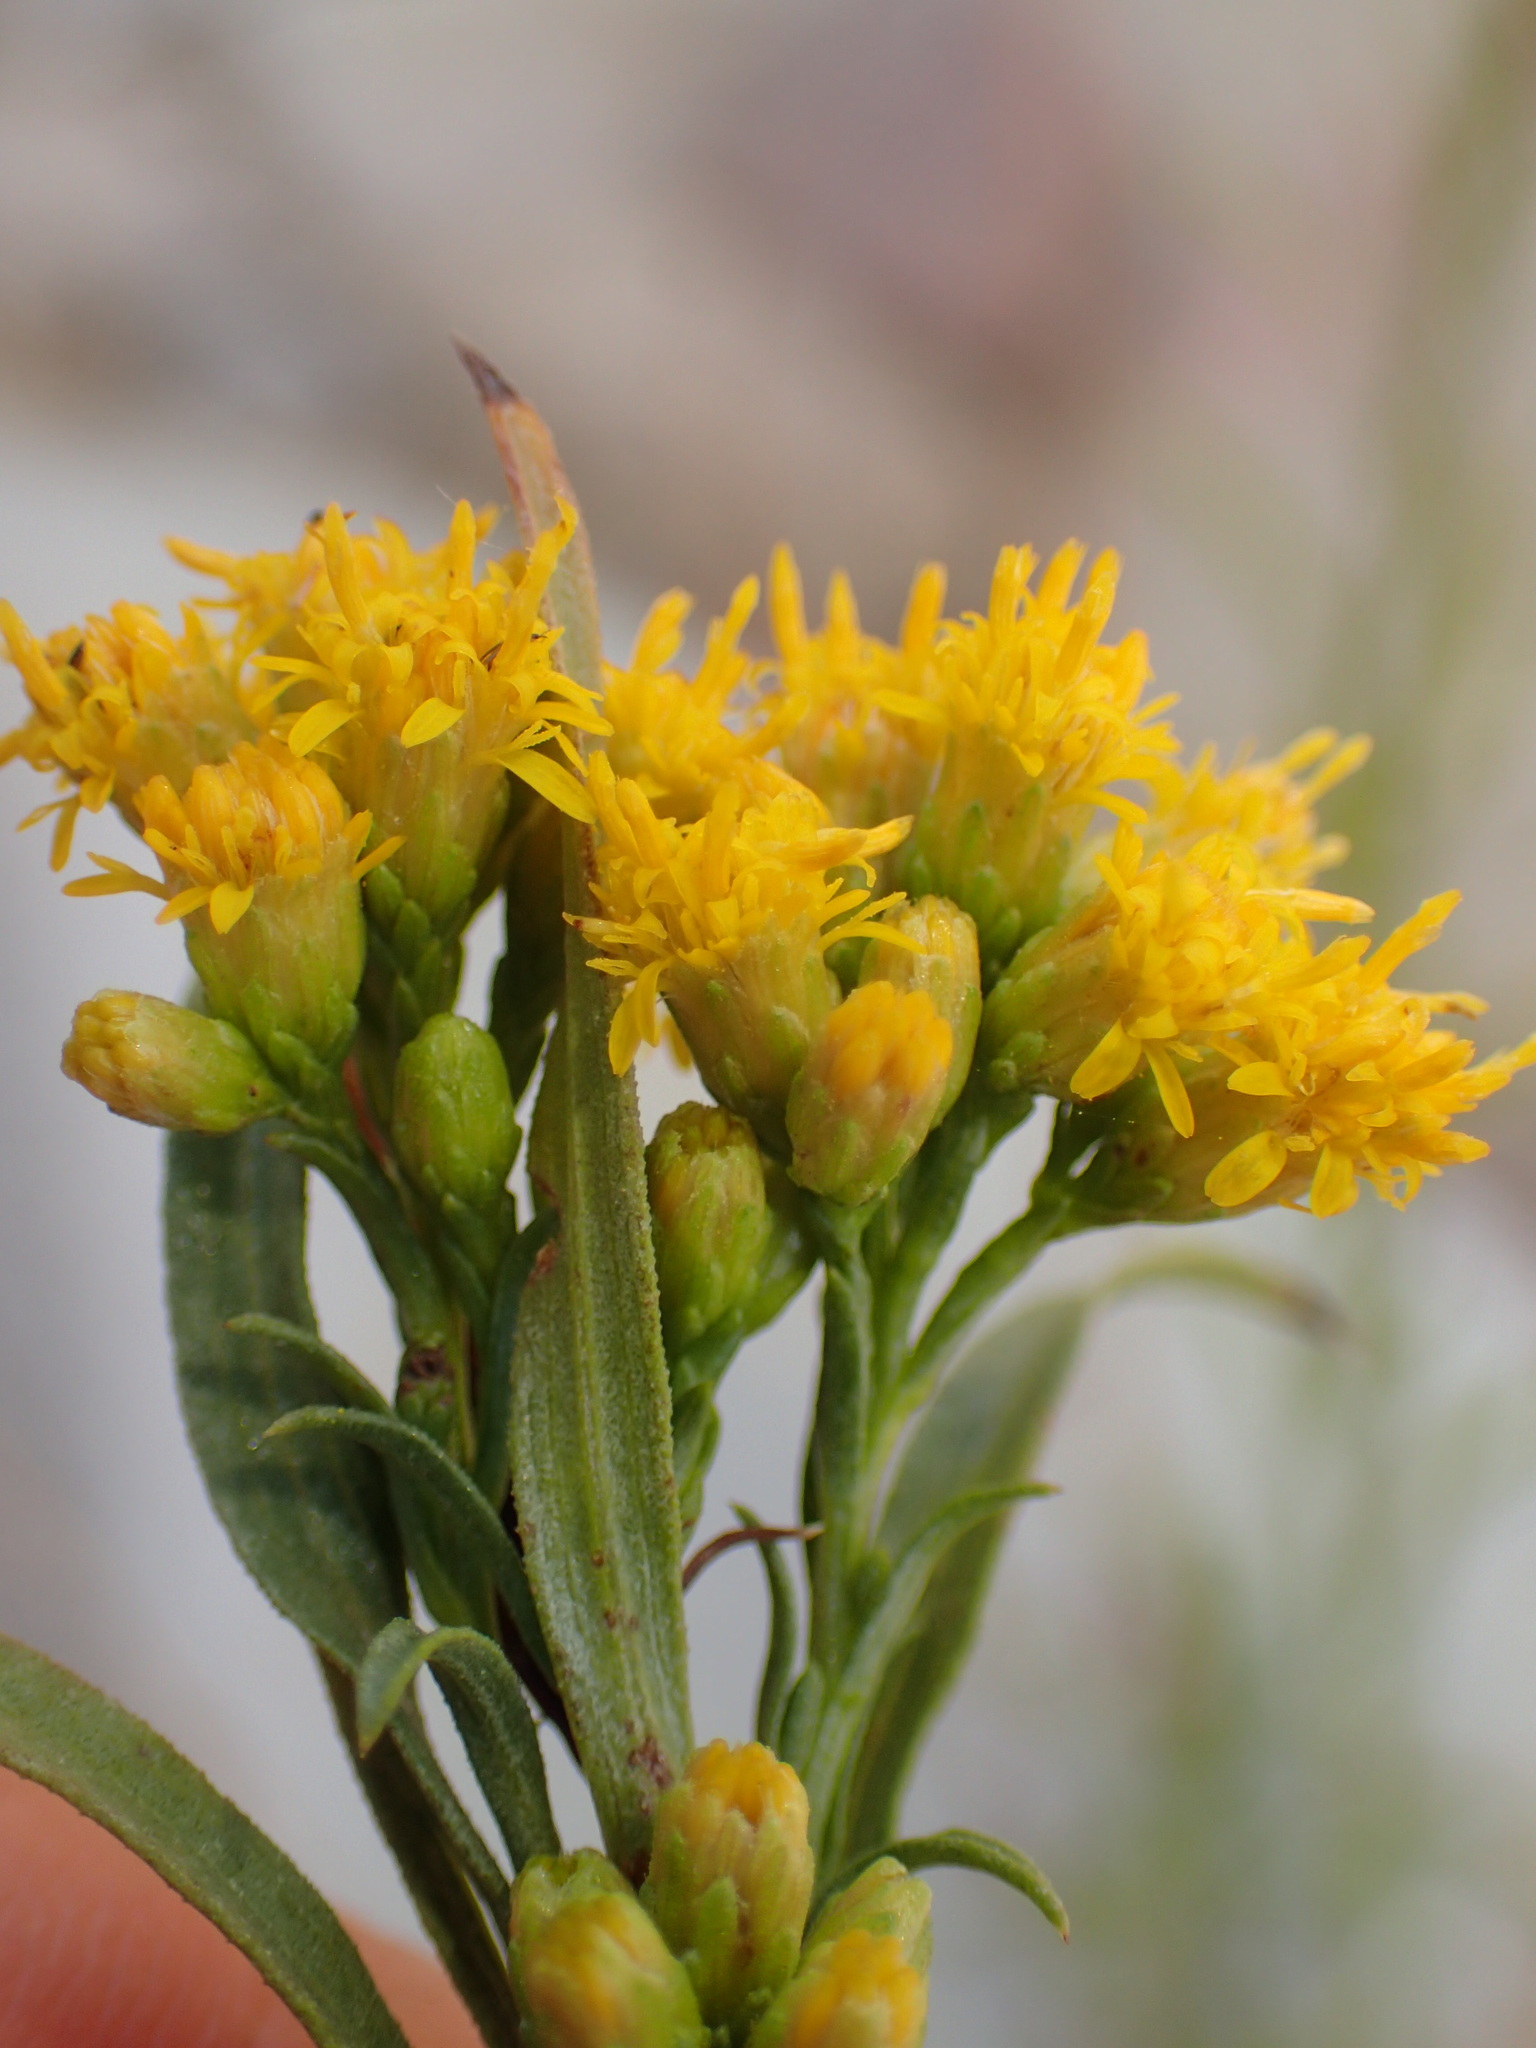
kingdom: Plantae
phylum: Tracheophyta
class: Magnoliopsida
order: Asterales
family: Asteraceae
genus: Euthamia
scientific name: Euthamia occidentalis
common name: Western goldentop
